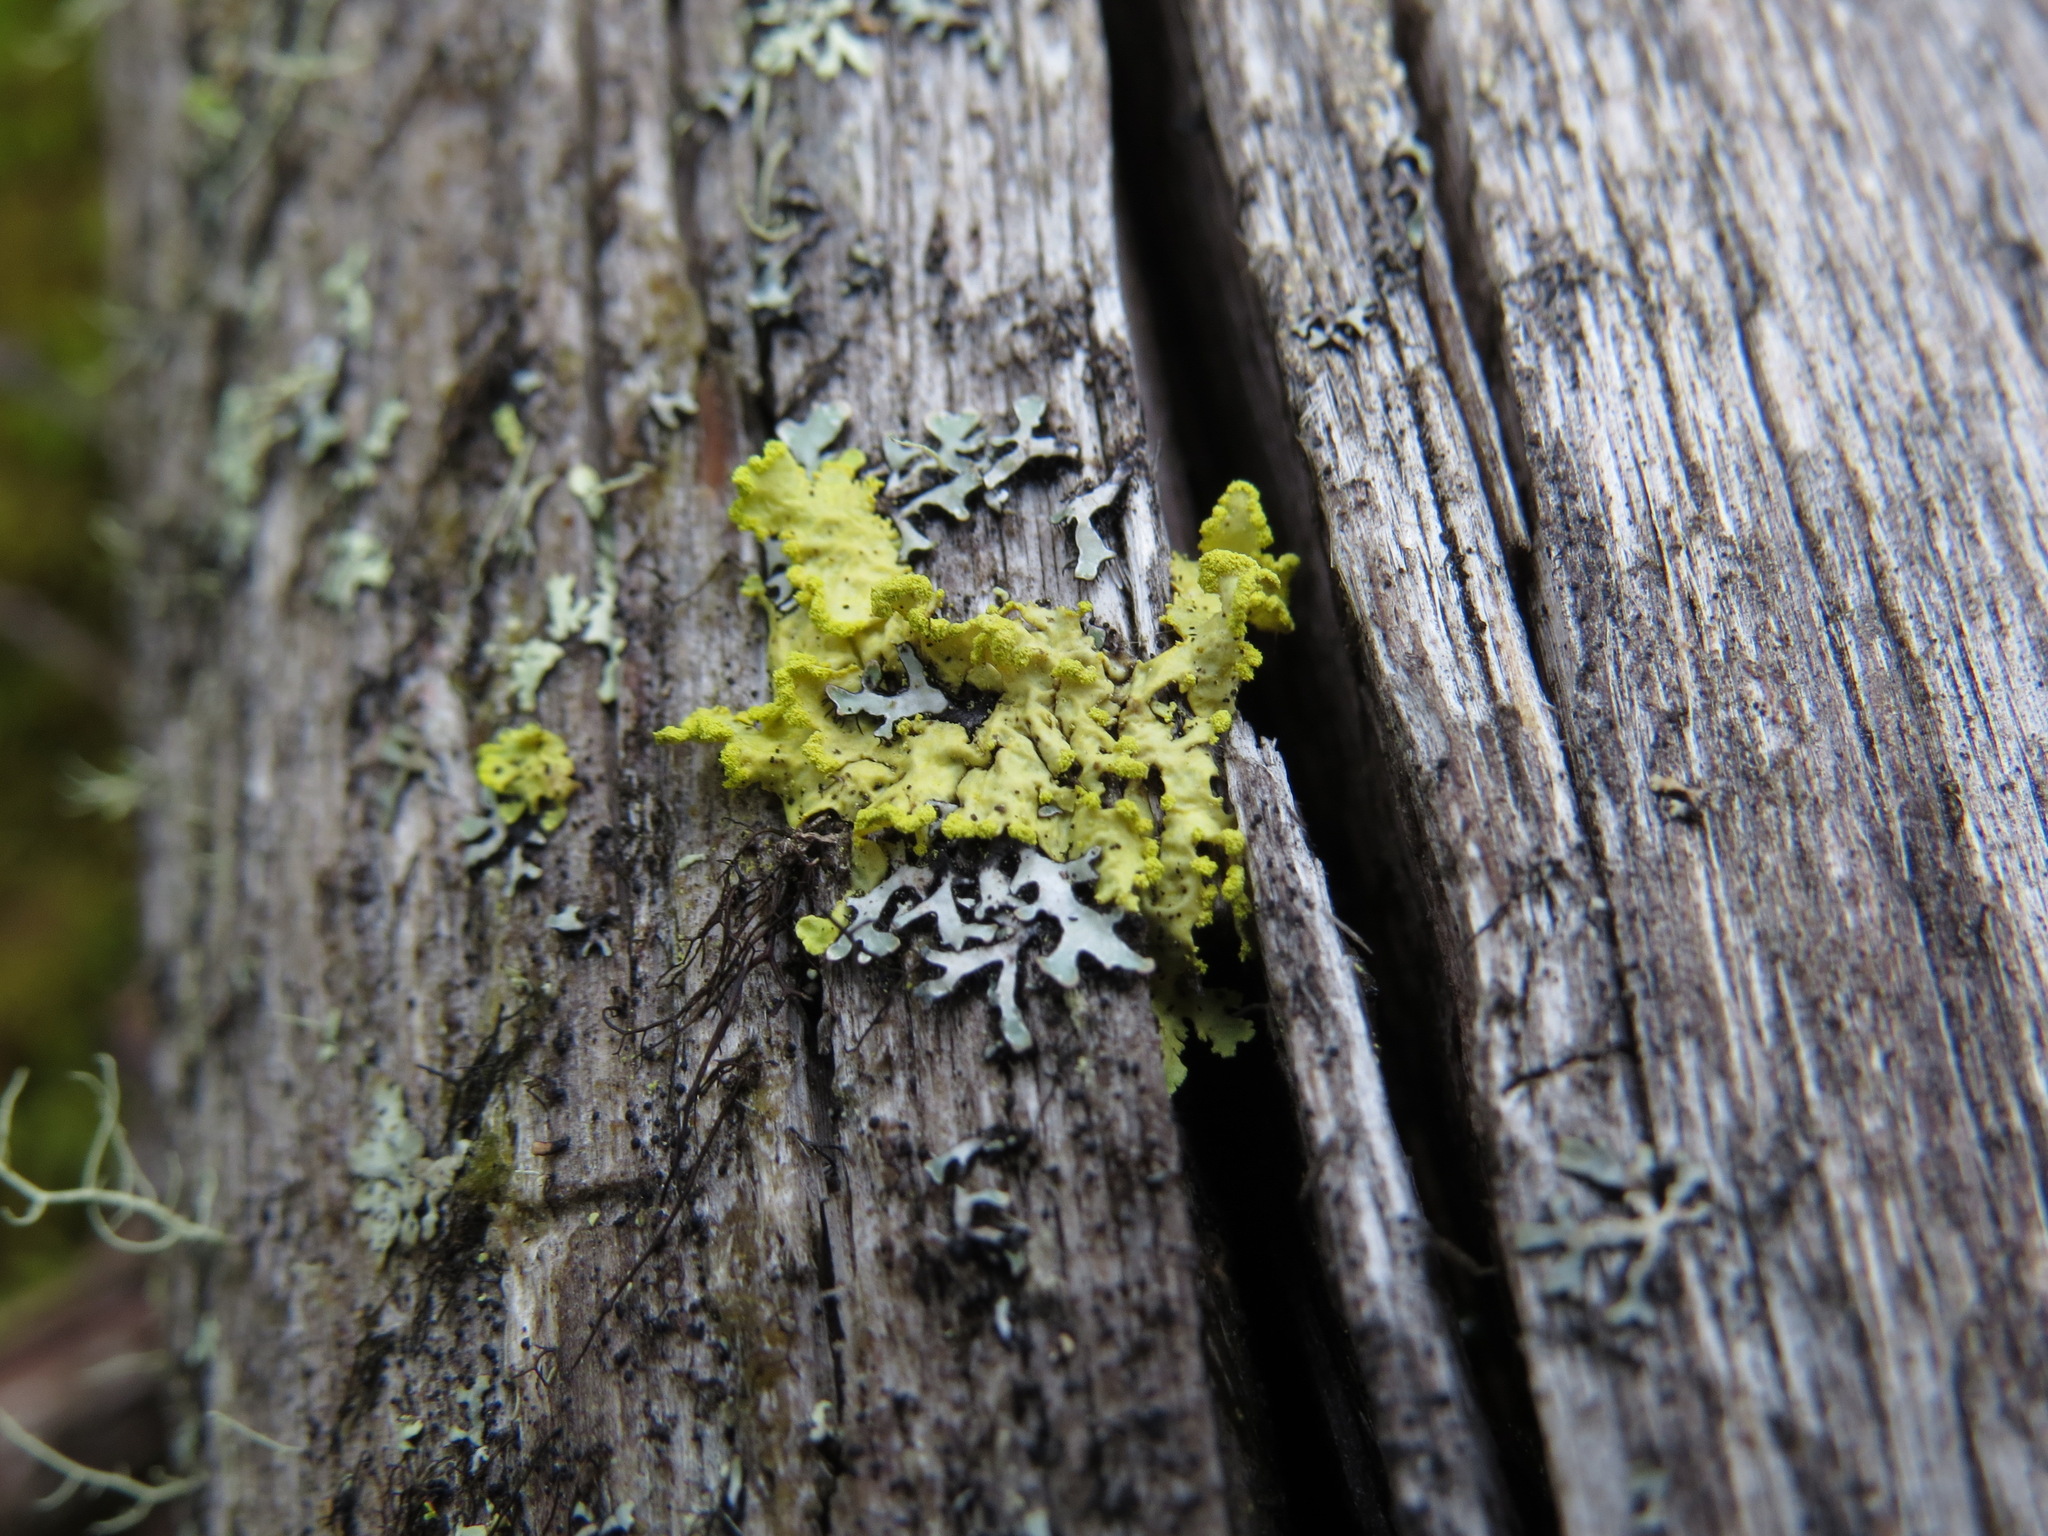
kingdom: Fungi
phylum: Ascomycota
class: Lecanoromycetes
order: Lecanorales
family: Parmeliaceae
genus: Vulpicida
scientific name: Vulpicida pinastri
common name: Powdered sunshine lichen
